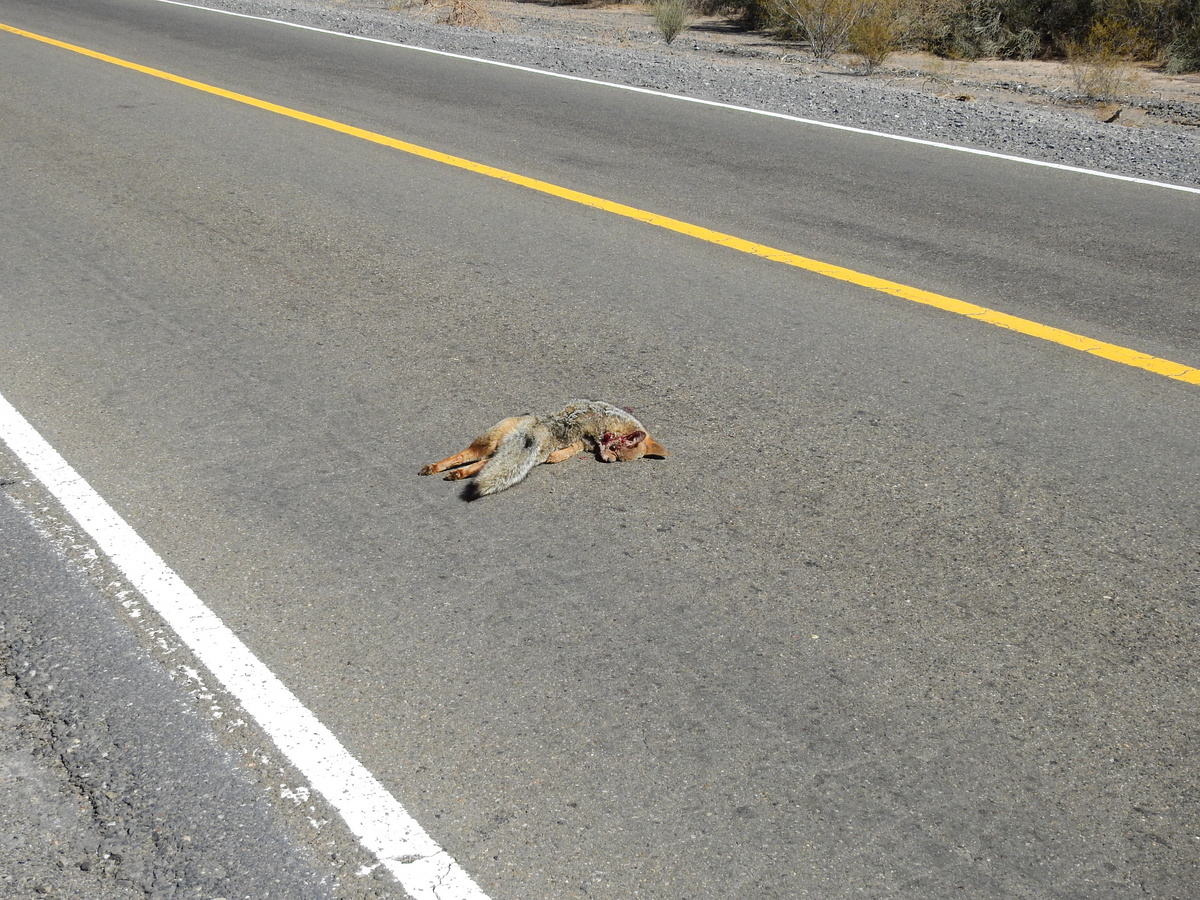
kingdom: Animalia
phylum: Chordata
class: Mammalia
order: Carnivora
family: Canidae
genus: Lycalopex
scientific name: Lycalopex gymnocercus
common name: Pampas fox
